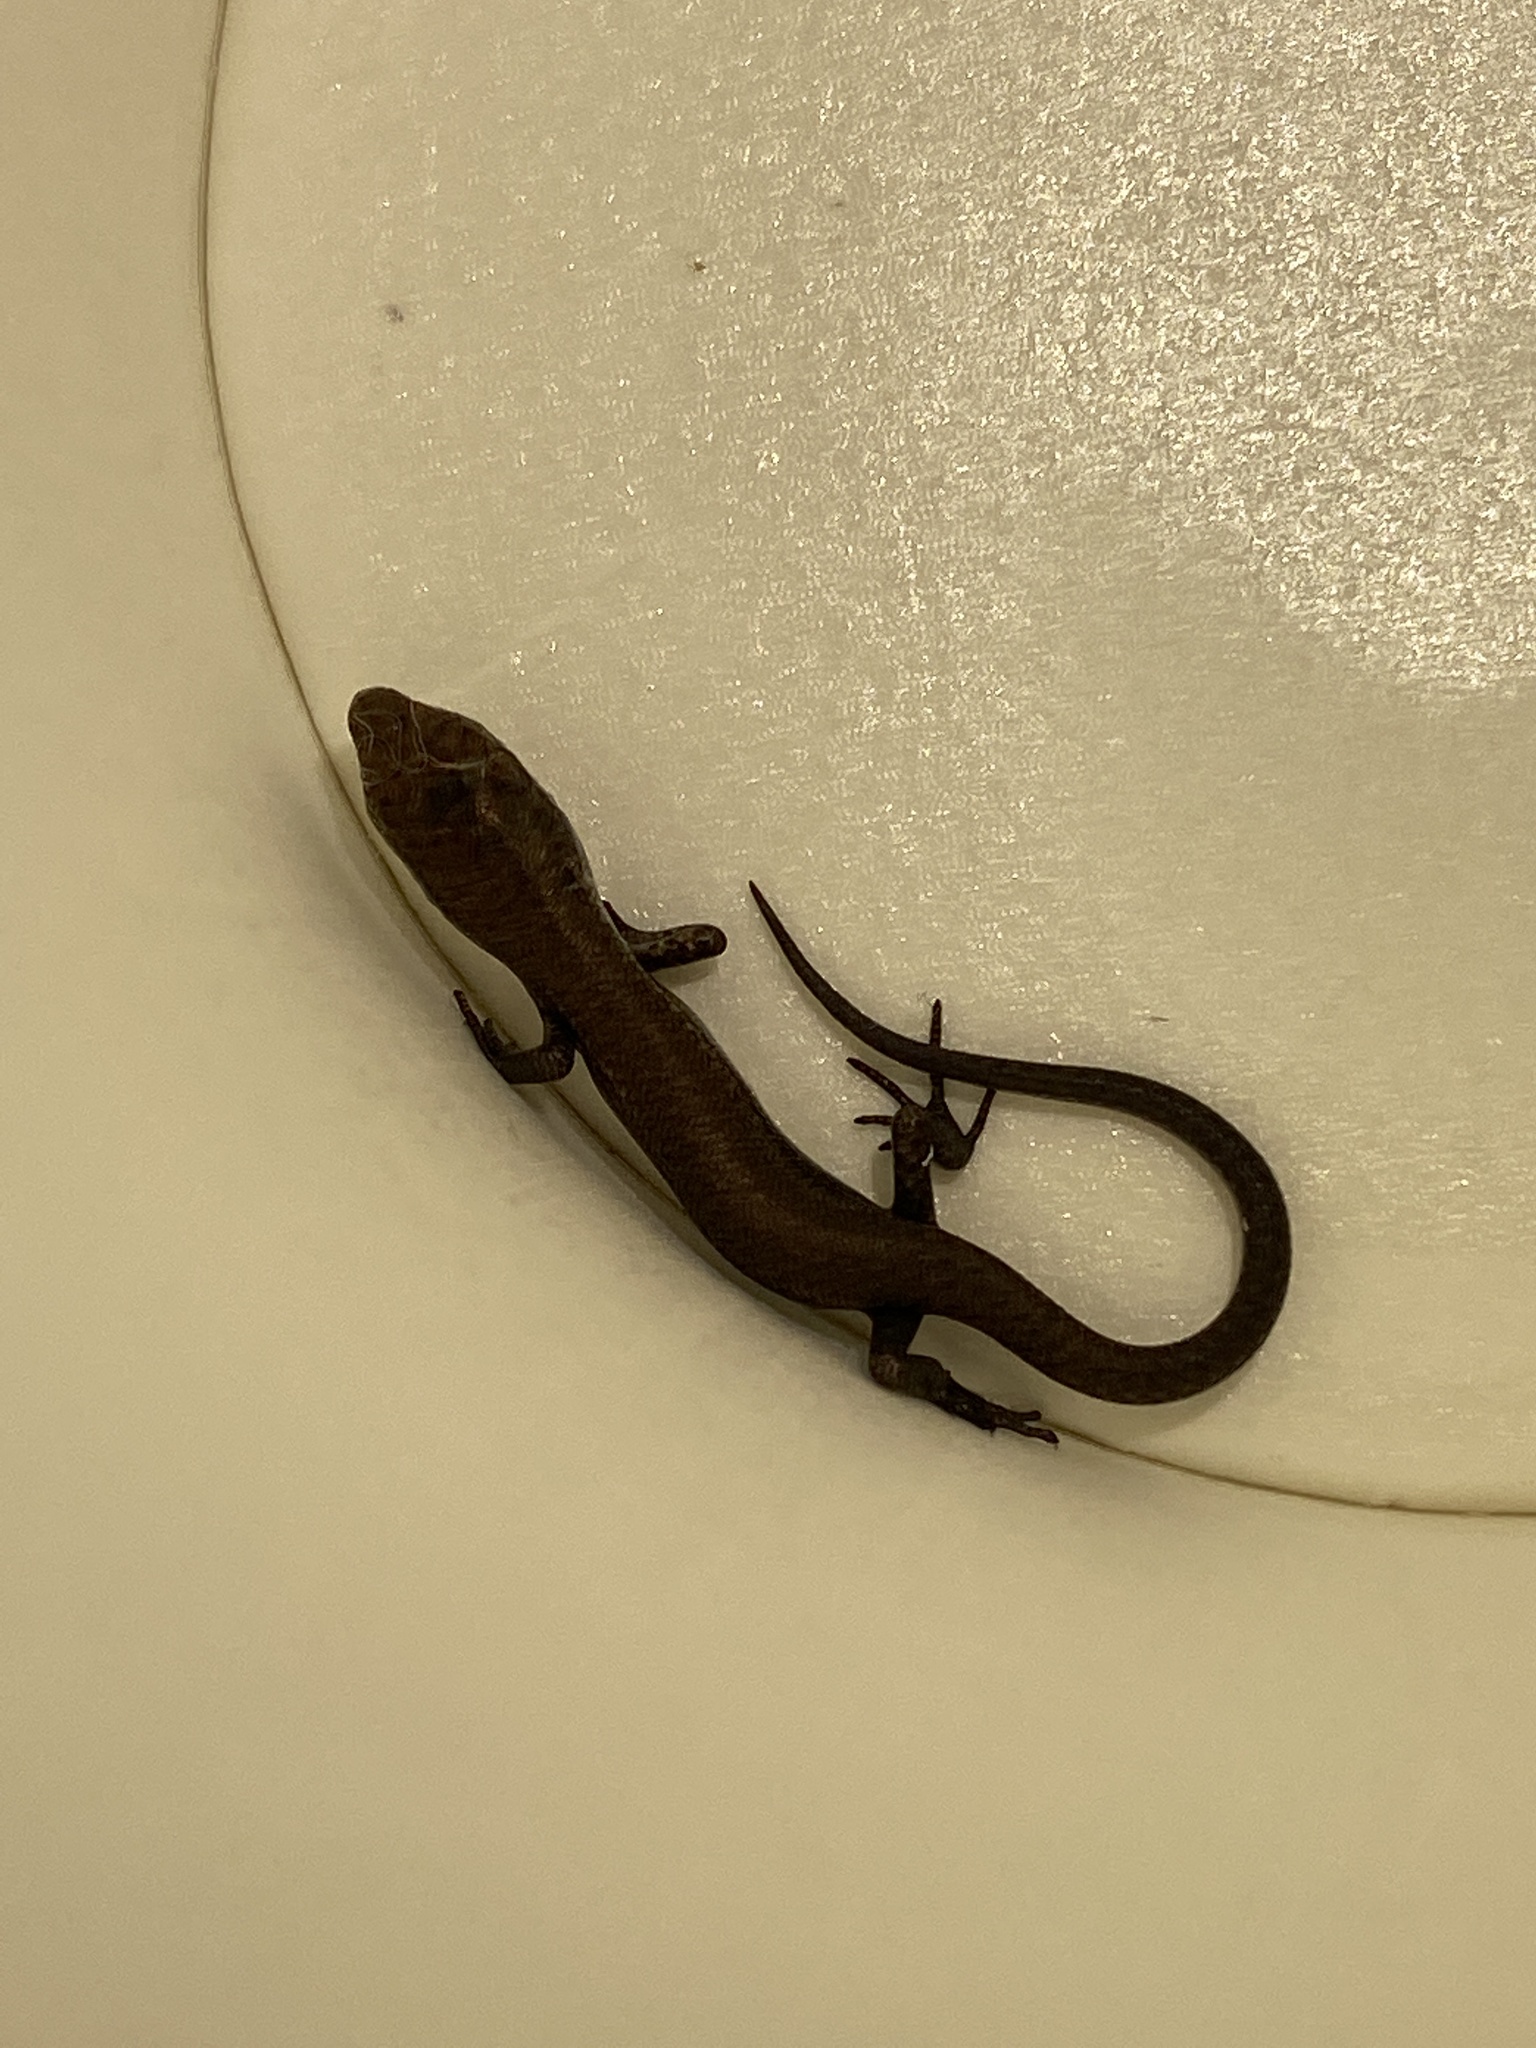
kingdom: Animalia
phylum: Chordata
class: Squamata
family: Scincidae
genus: Lampropholis
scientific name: Lampropholis delicata
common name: Plague skink
